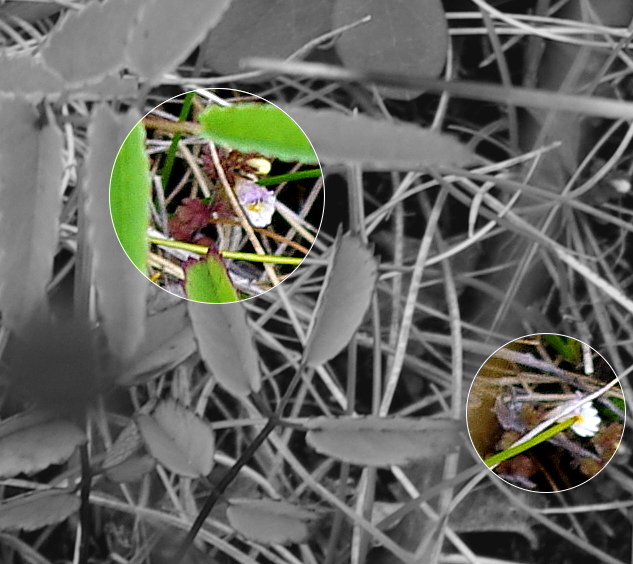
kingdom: Plantae
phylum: Tracheophyta
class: Magnoliopsida
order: Lamiales
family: Orobanchaceae
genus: Euphrasia
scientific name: Euphrasia wettsteinii
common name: Wettstein's eyebright
